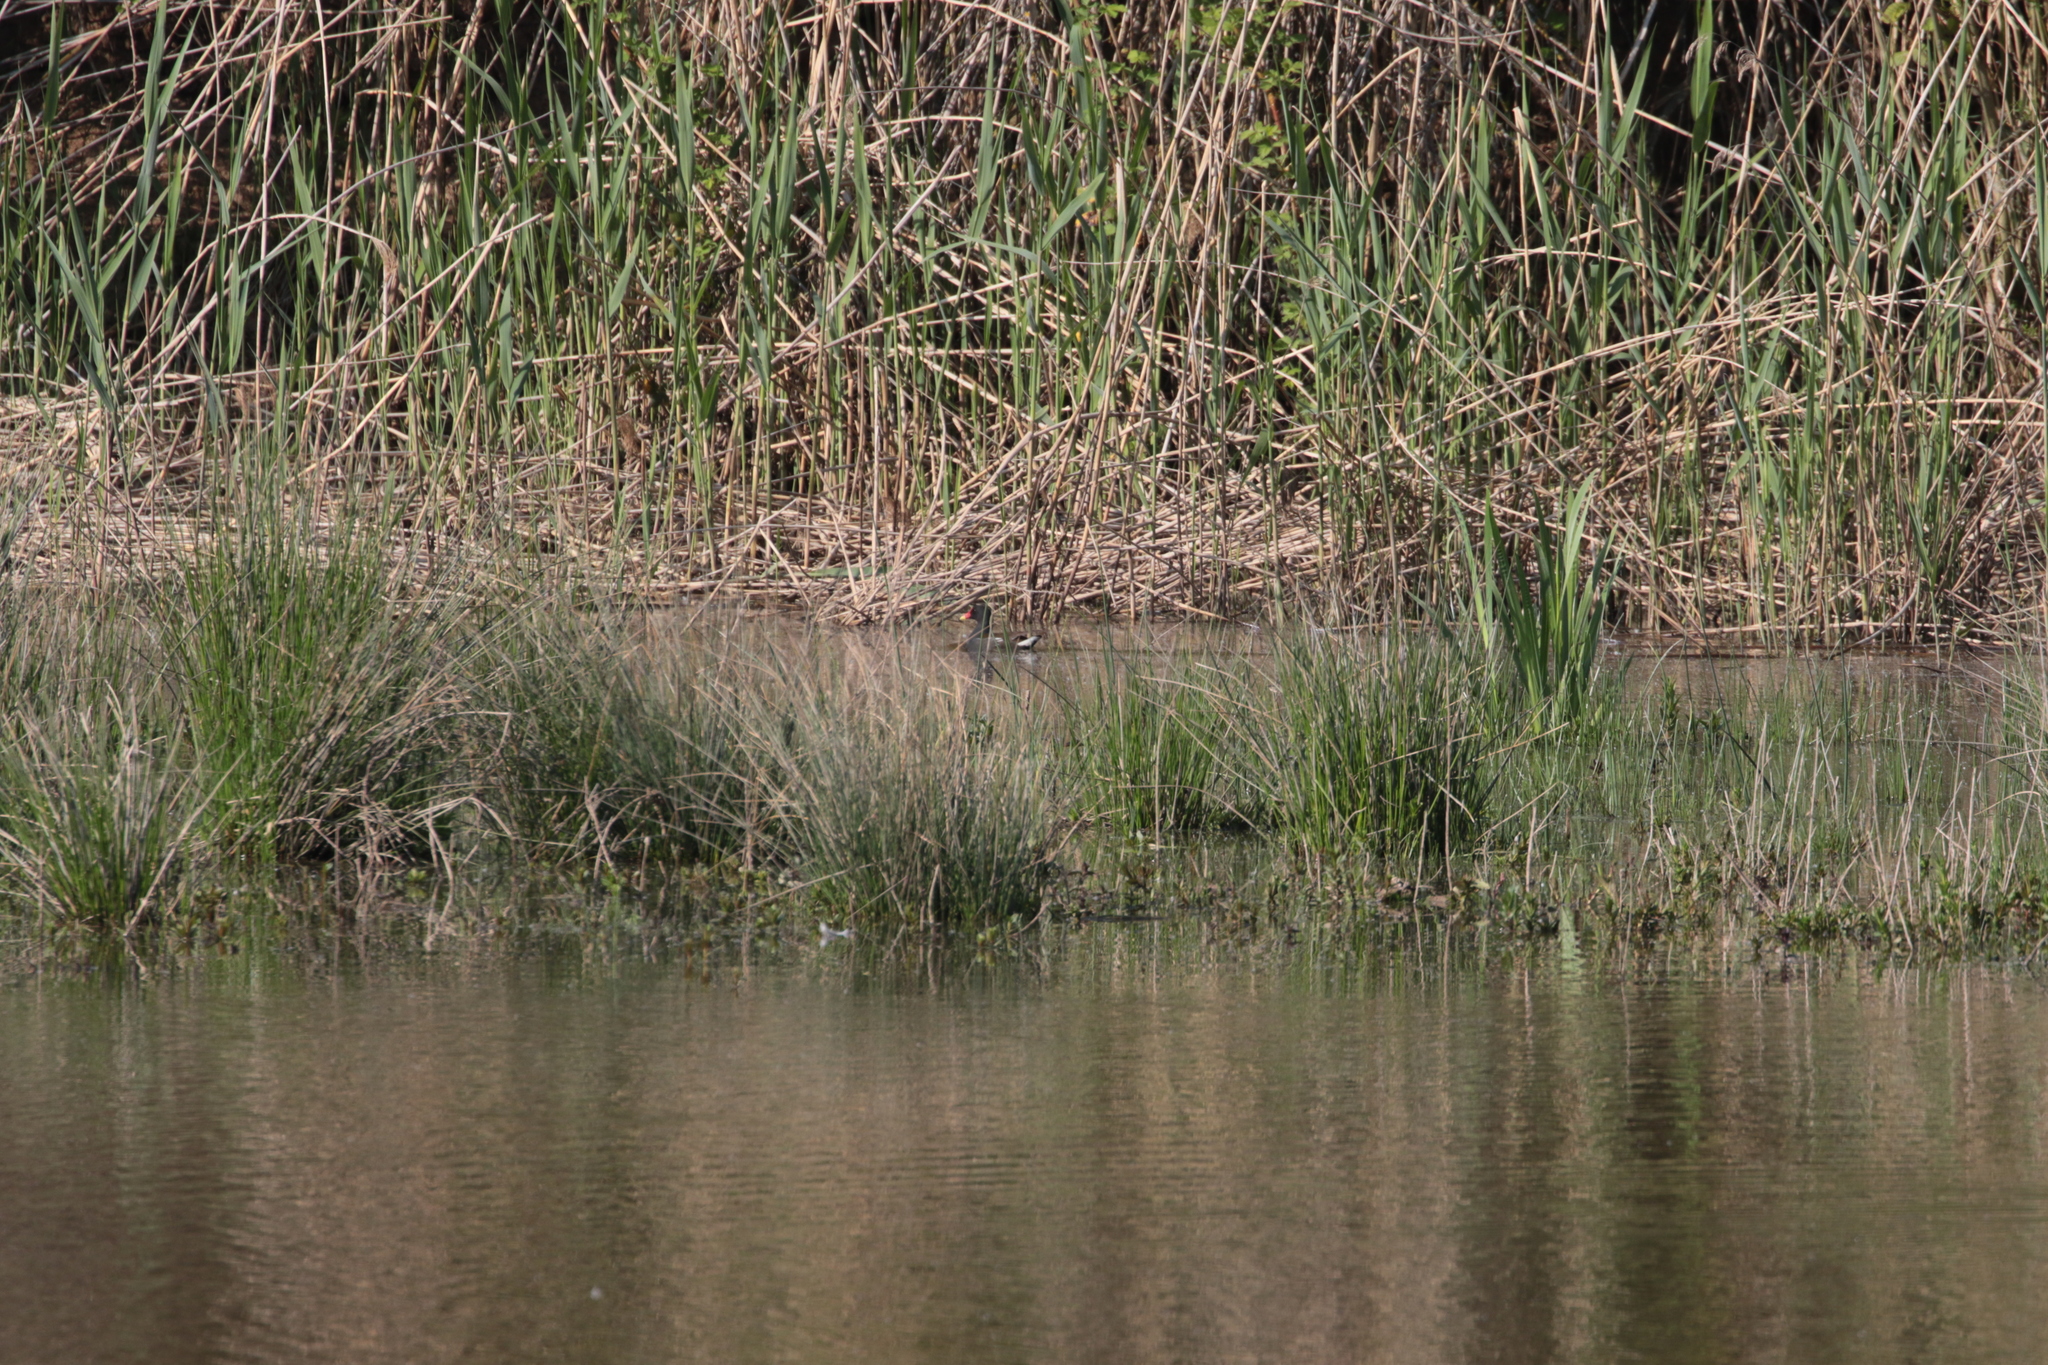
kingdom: Animalia
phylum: Chordata
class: Aves
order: Gruiformes
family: Rallidae
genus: Gallinula
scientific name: Gallinula chloropus
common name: Common moorhen
